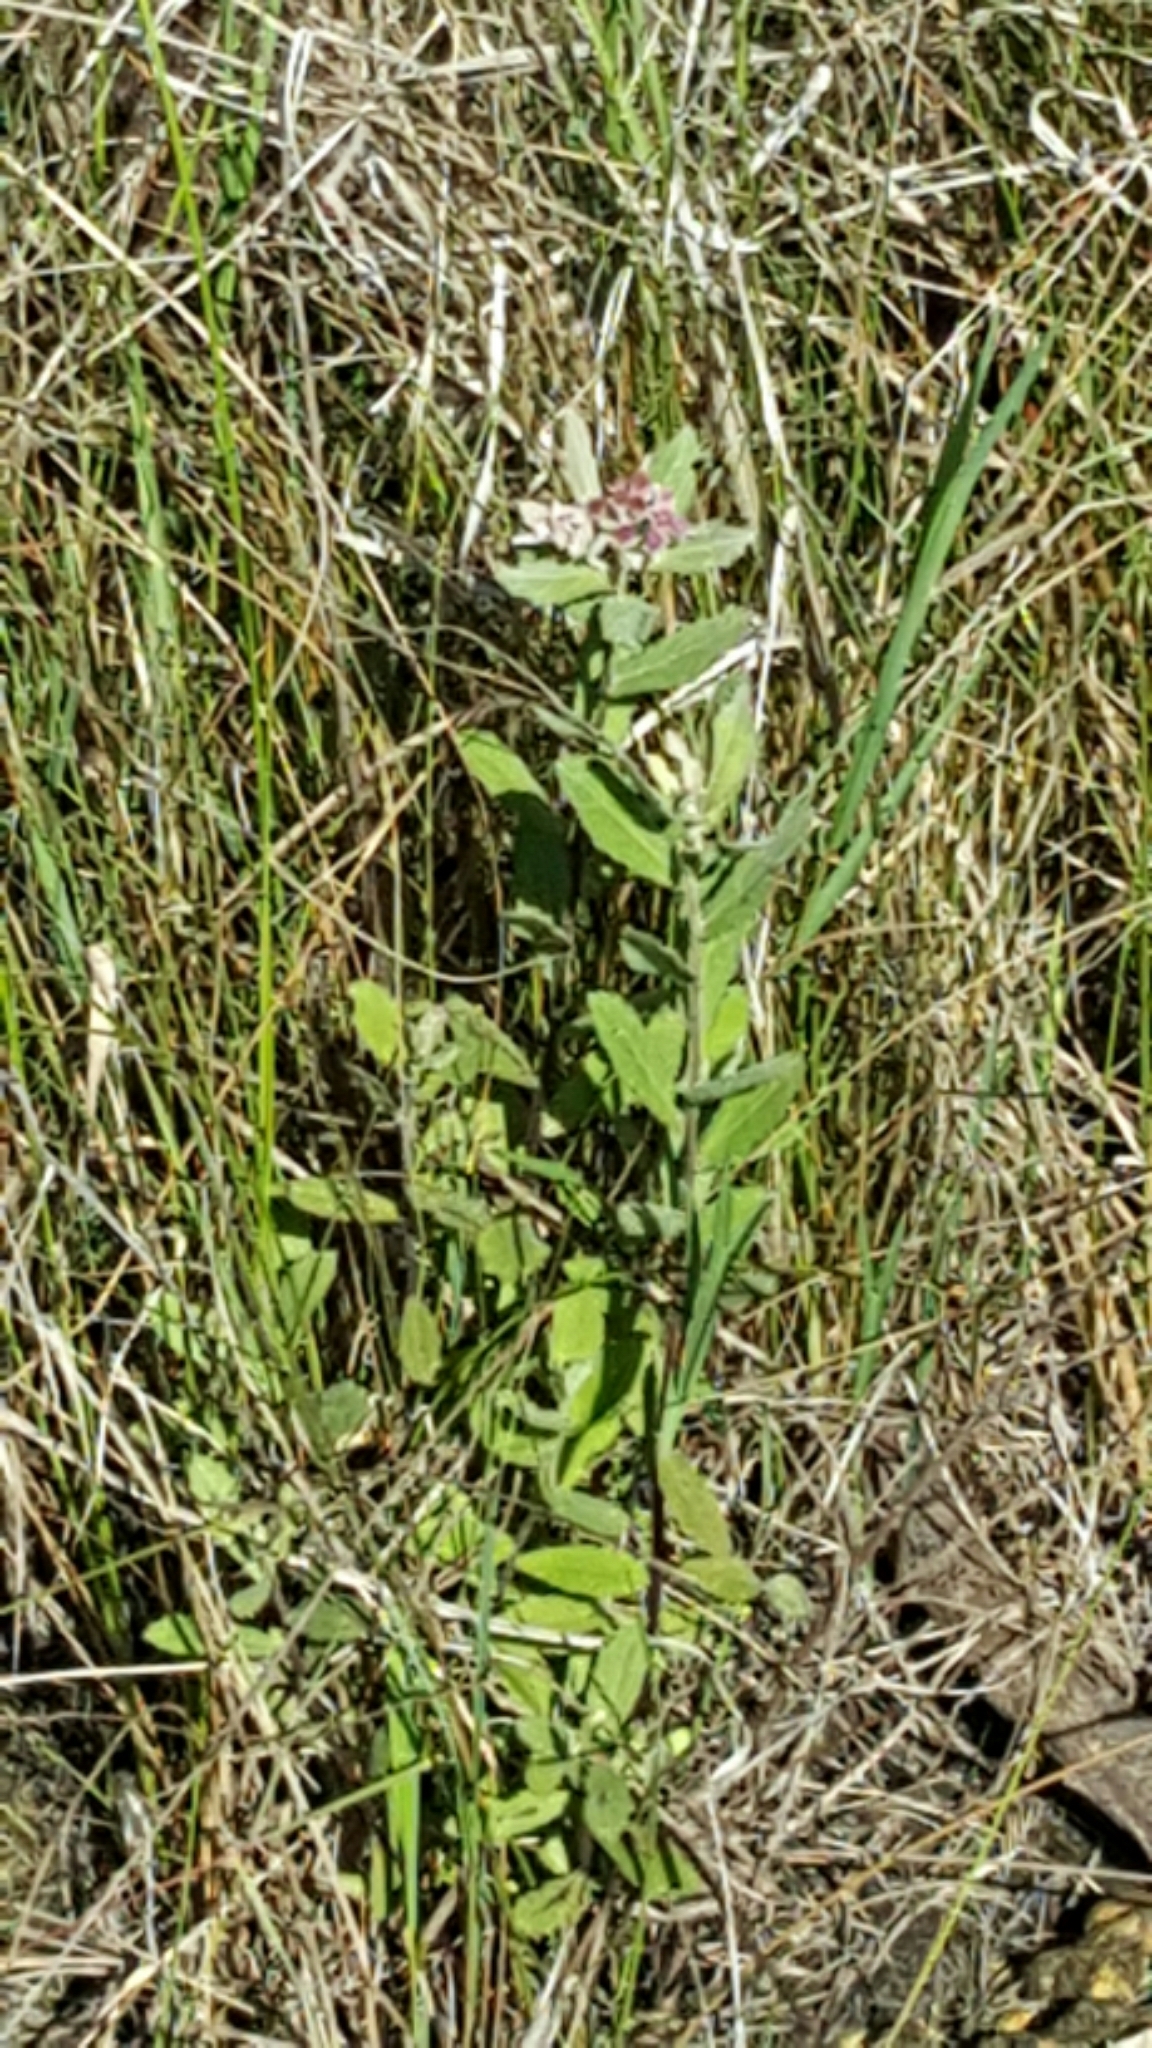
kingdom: Plantae
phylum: Tracheophyta
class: Magnoliopsida
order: Asterales
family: Asteraceae
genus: Pluchea
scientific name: Pluchea baccharis
